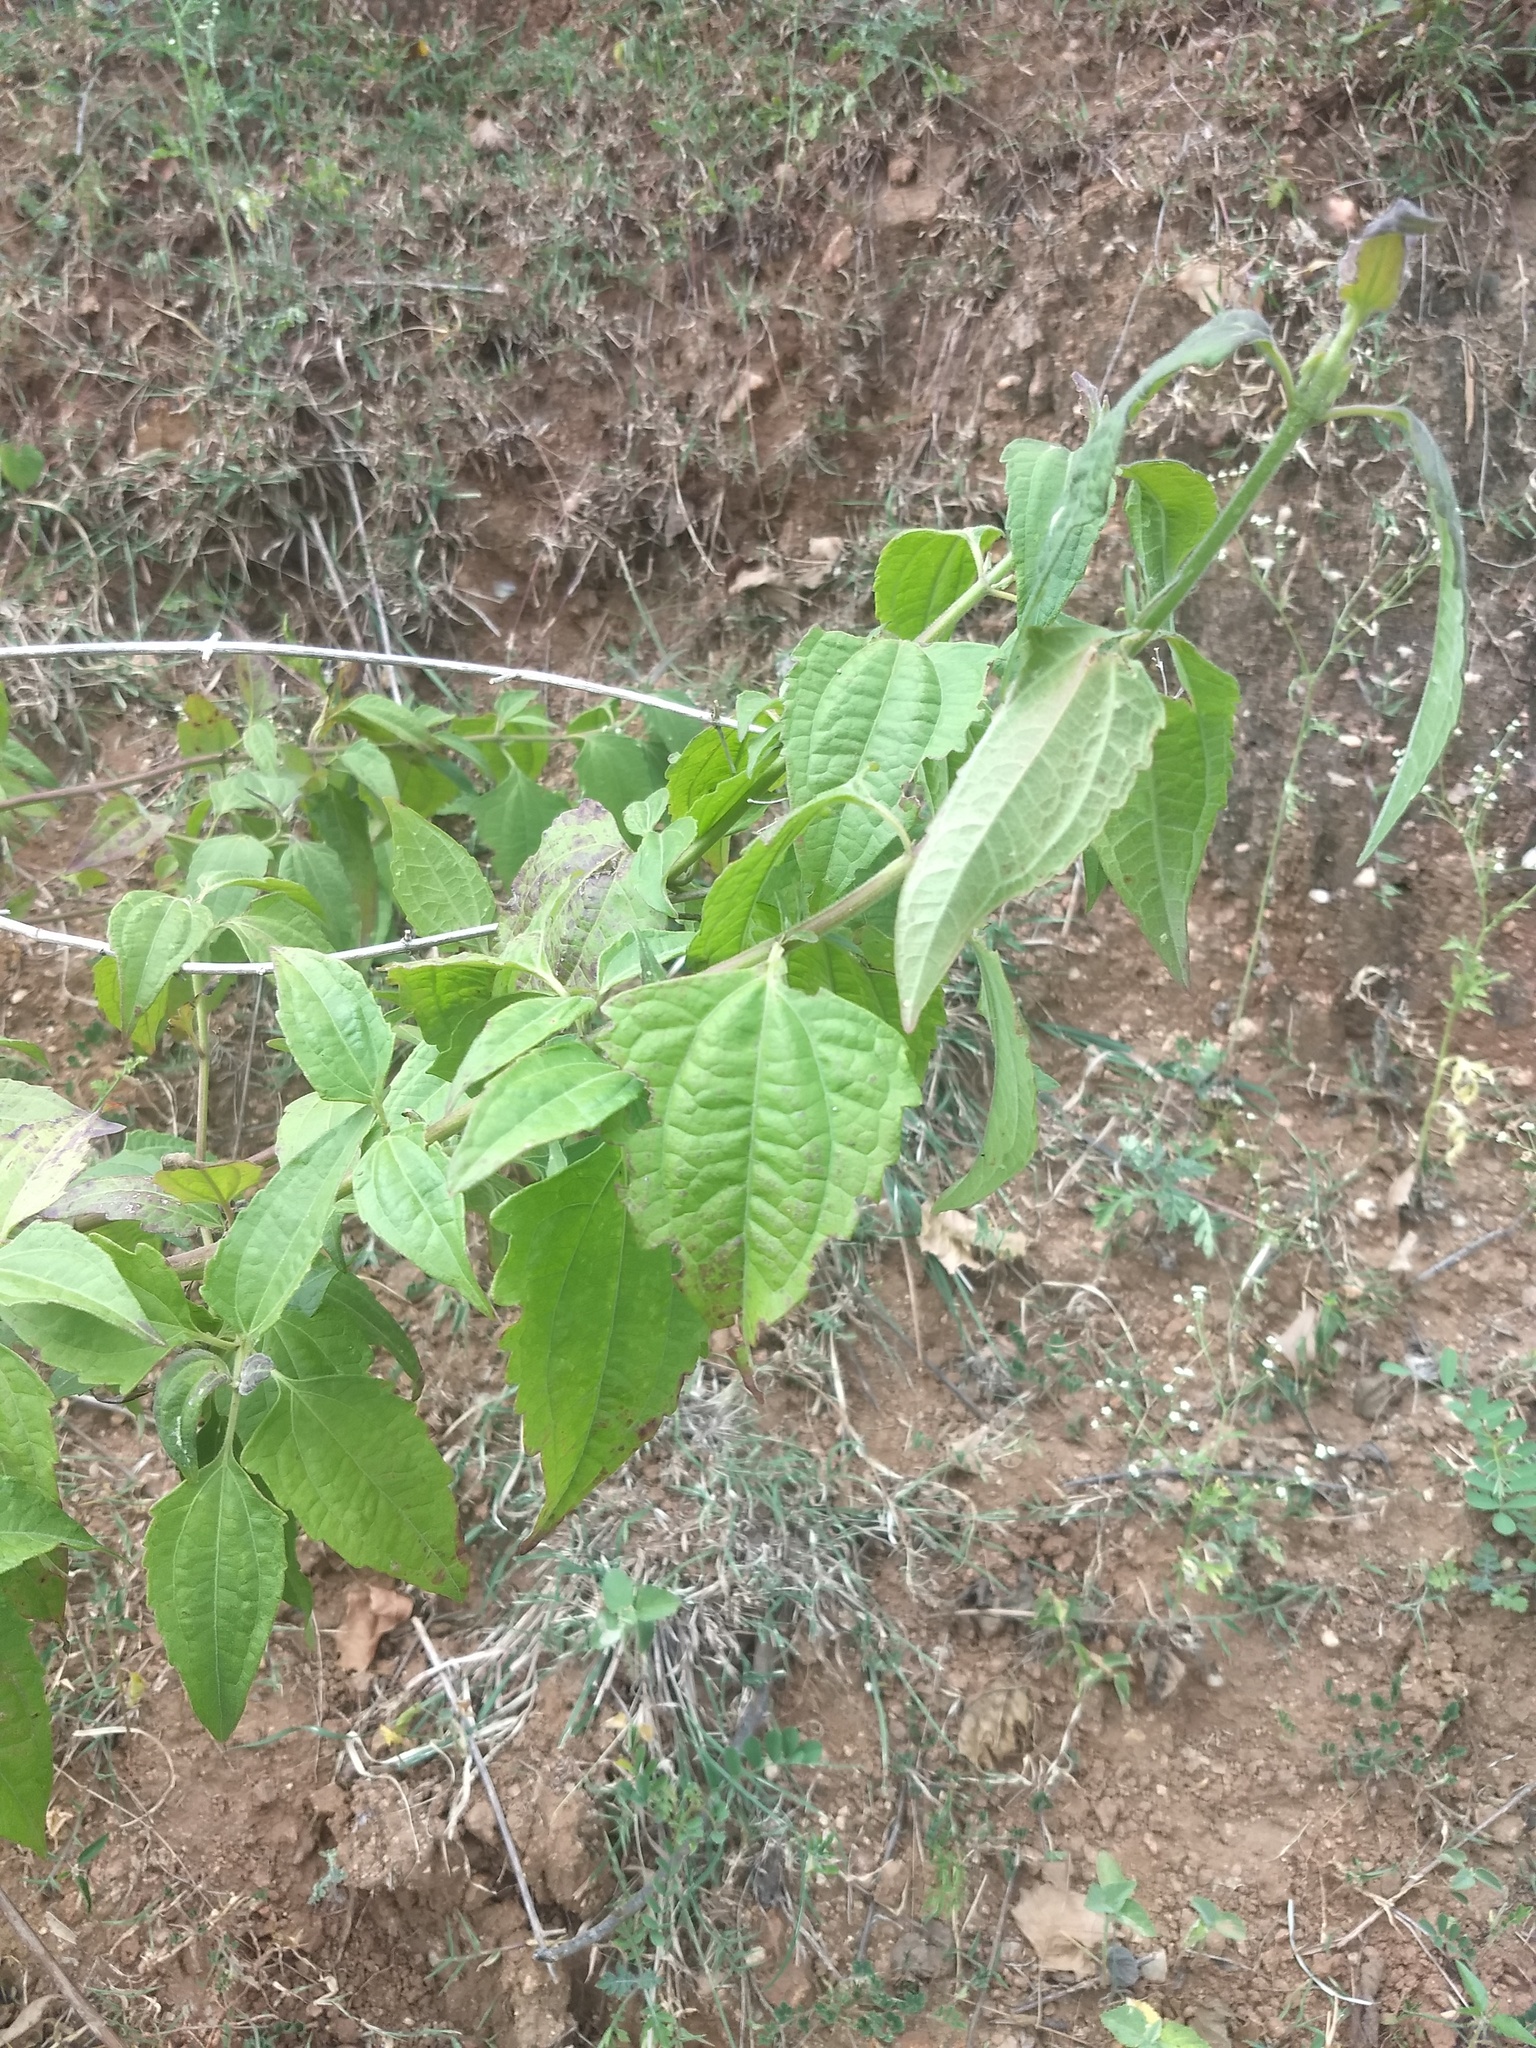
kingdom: Plantae
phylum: Tracheophyta
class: Magnoliopsida
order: Asterales
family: Asteraceae
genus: Chromolaena
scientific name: Chromolaena odorata
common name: Siamweed
